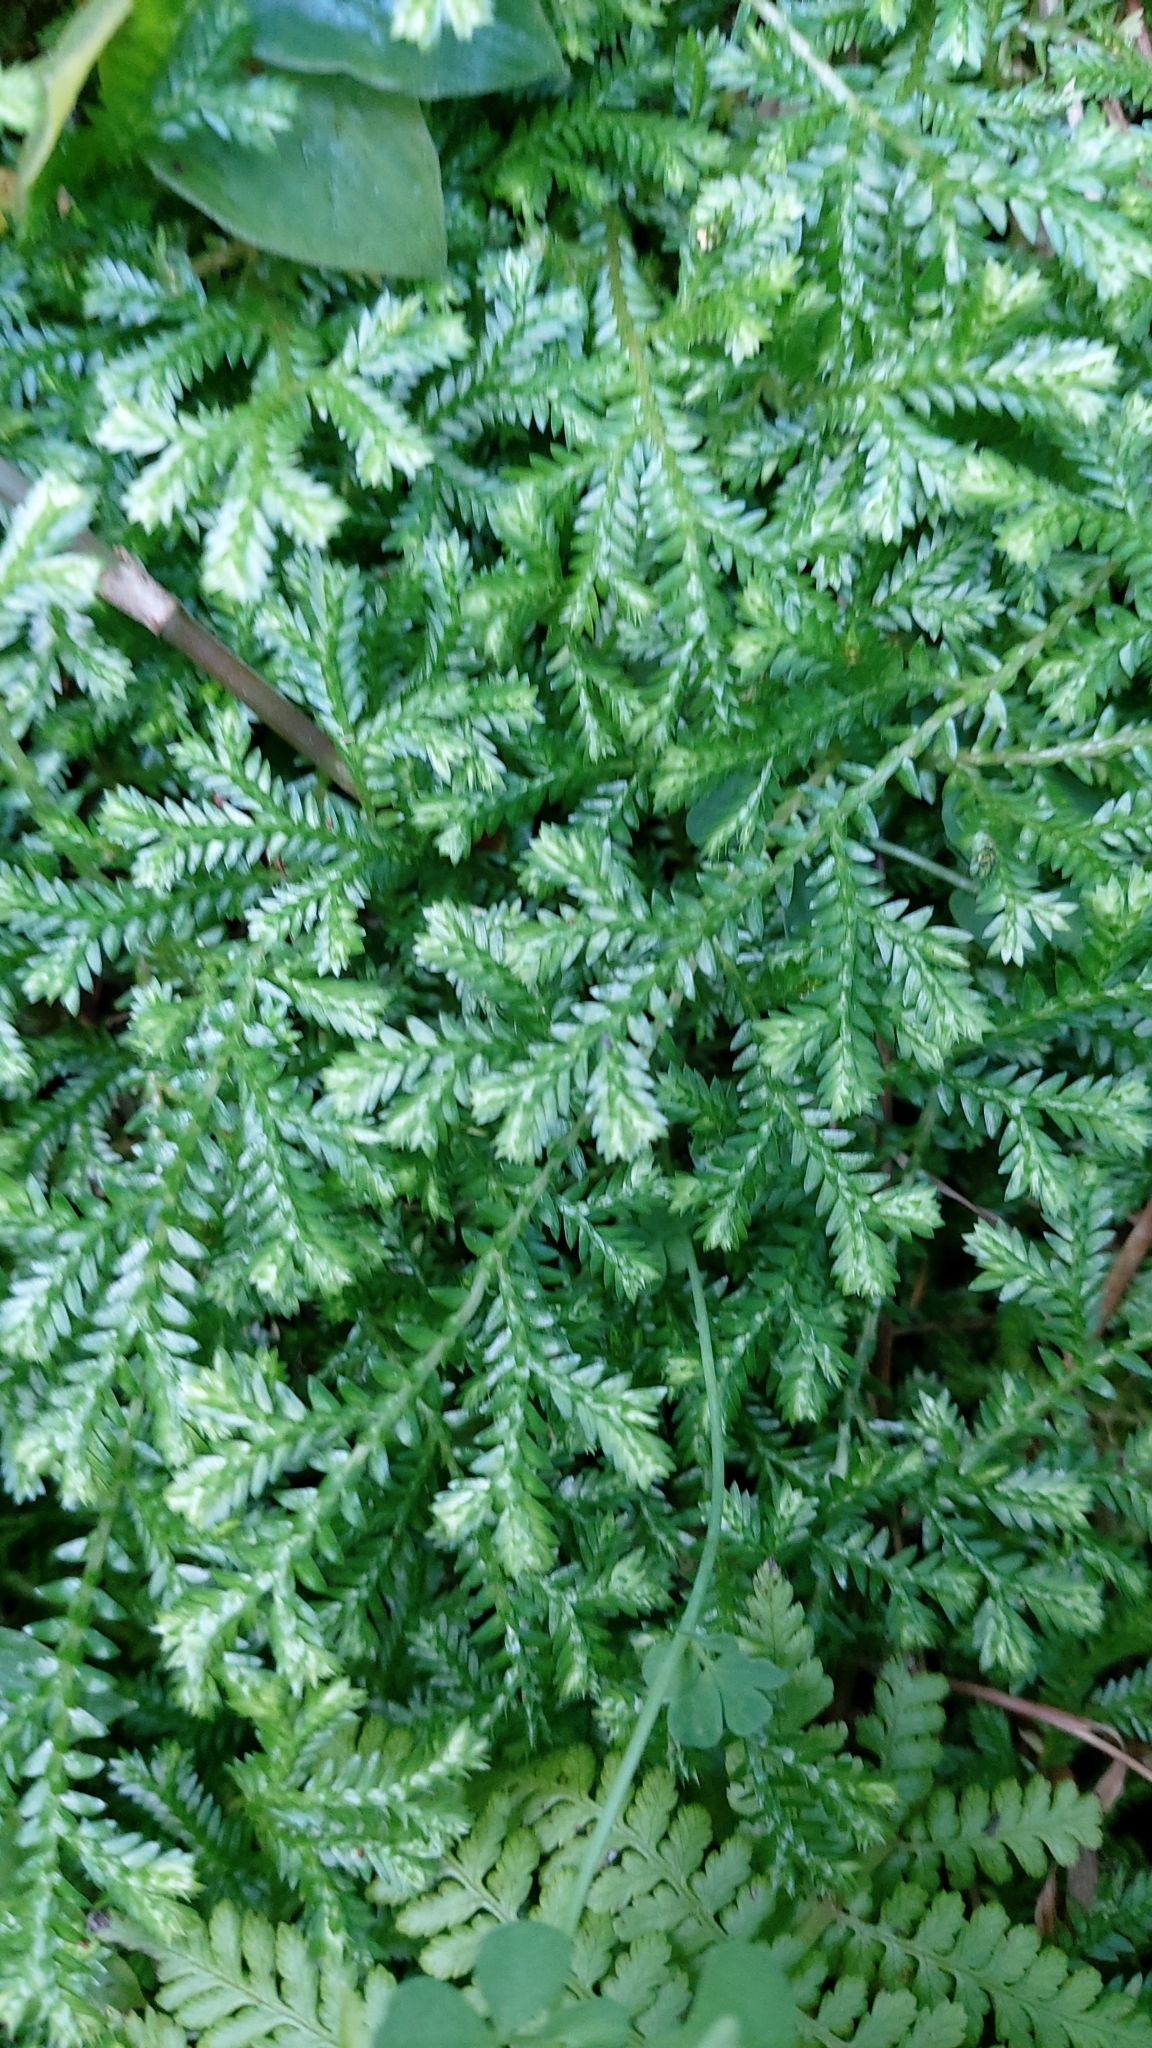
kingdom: Plantae
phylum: Tracheophyta
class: Lycopodiopsida
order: Selaginellales
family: Selaginellaceae
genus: Selaginella
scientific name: Selaginella kraussiana
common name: Krauss' spikemoss
